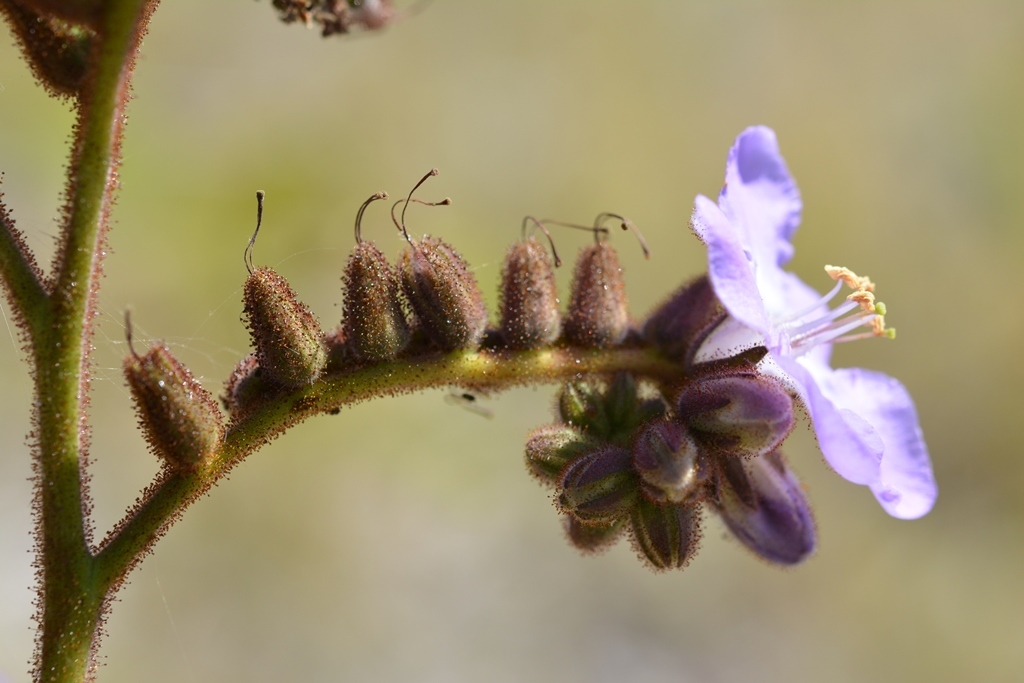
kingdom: Plantae
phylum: Tracheophyta
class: Magnoliopsida
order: Boraginales
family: Namaceae
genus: Wigandia
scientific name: Wigandia urens
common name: Caracus wigandia
